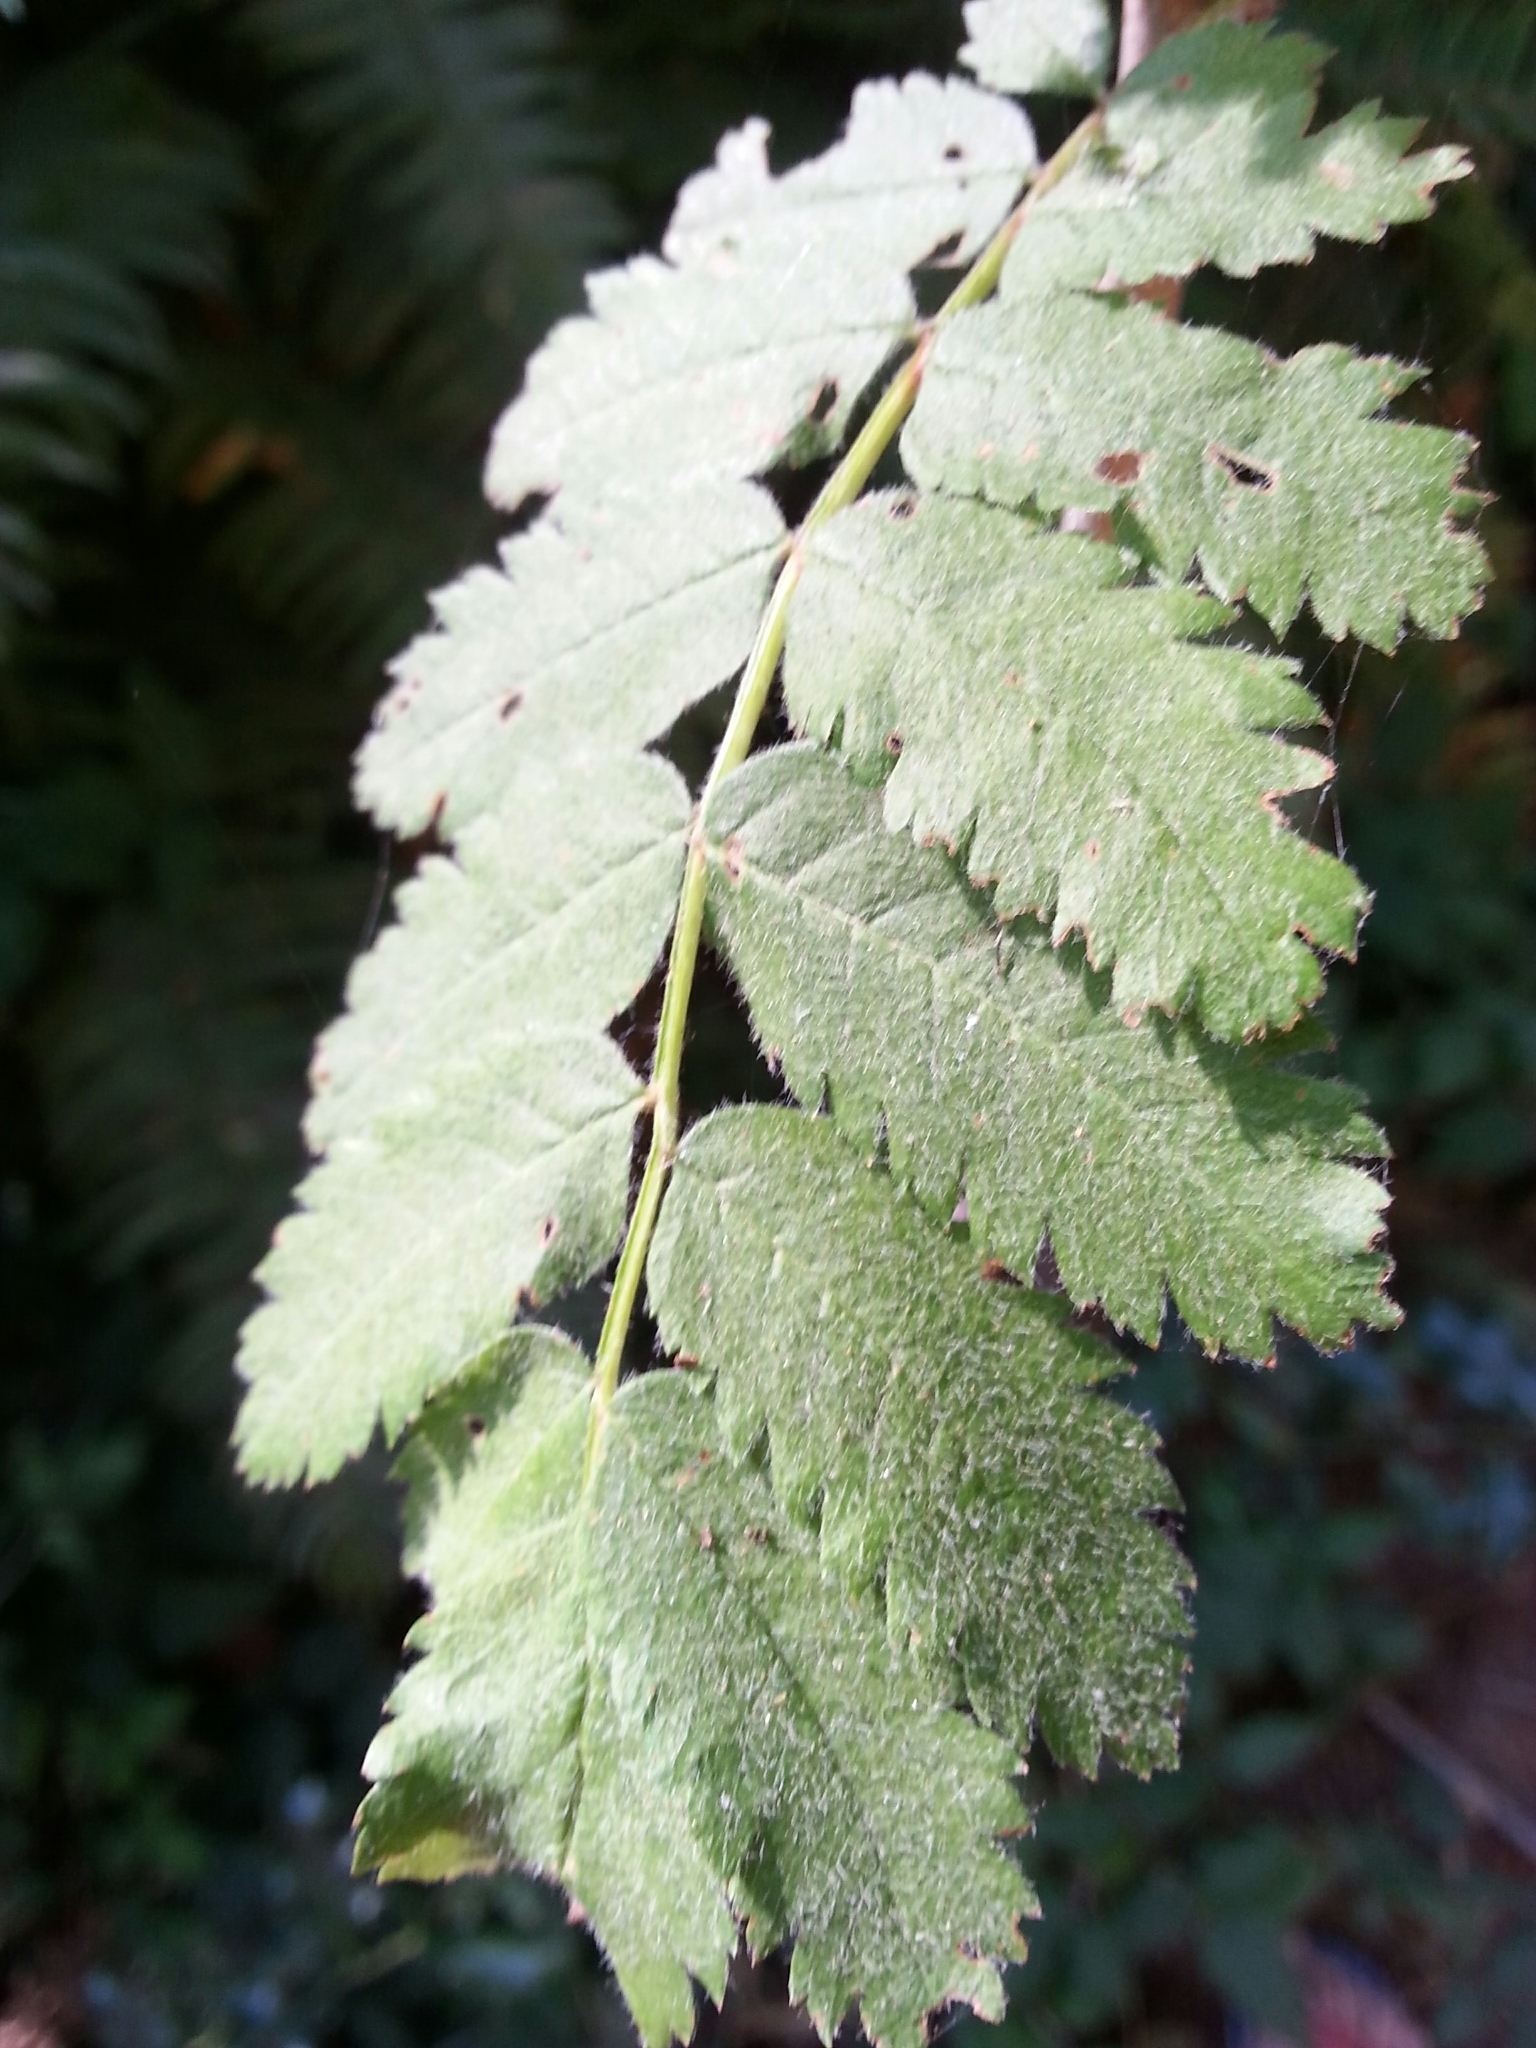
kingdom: Plantae
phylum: Tracheophyta
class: Magnoliopsida
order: Rosales
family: Rosaceae
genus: Sorbus
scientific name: Sorbus aucuparia
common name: Rowan
